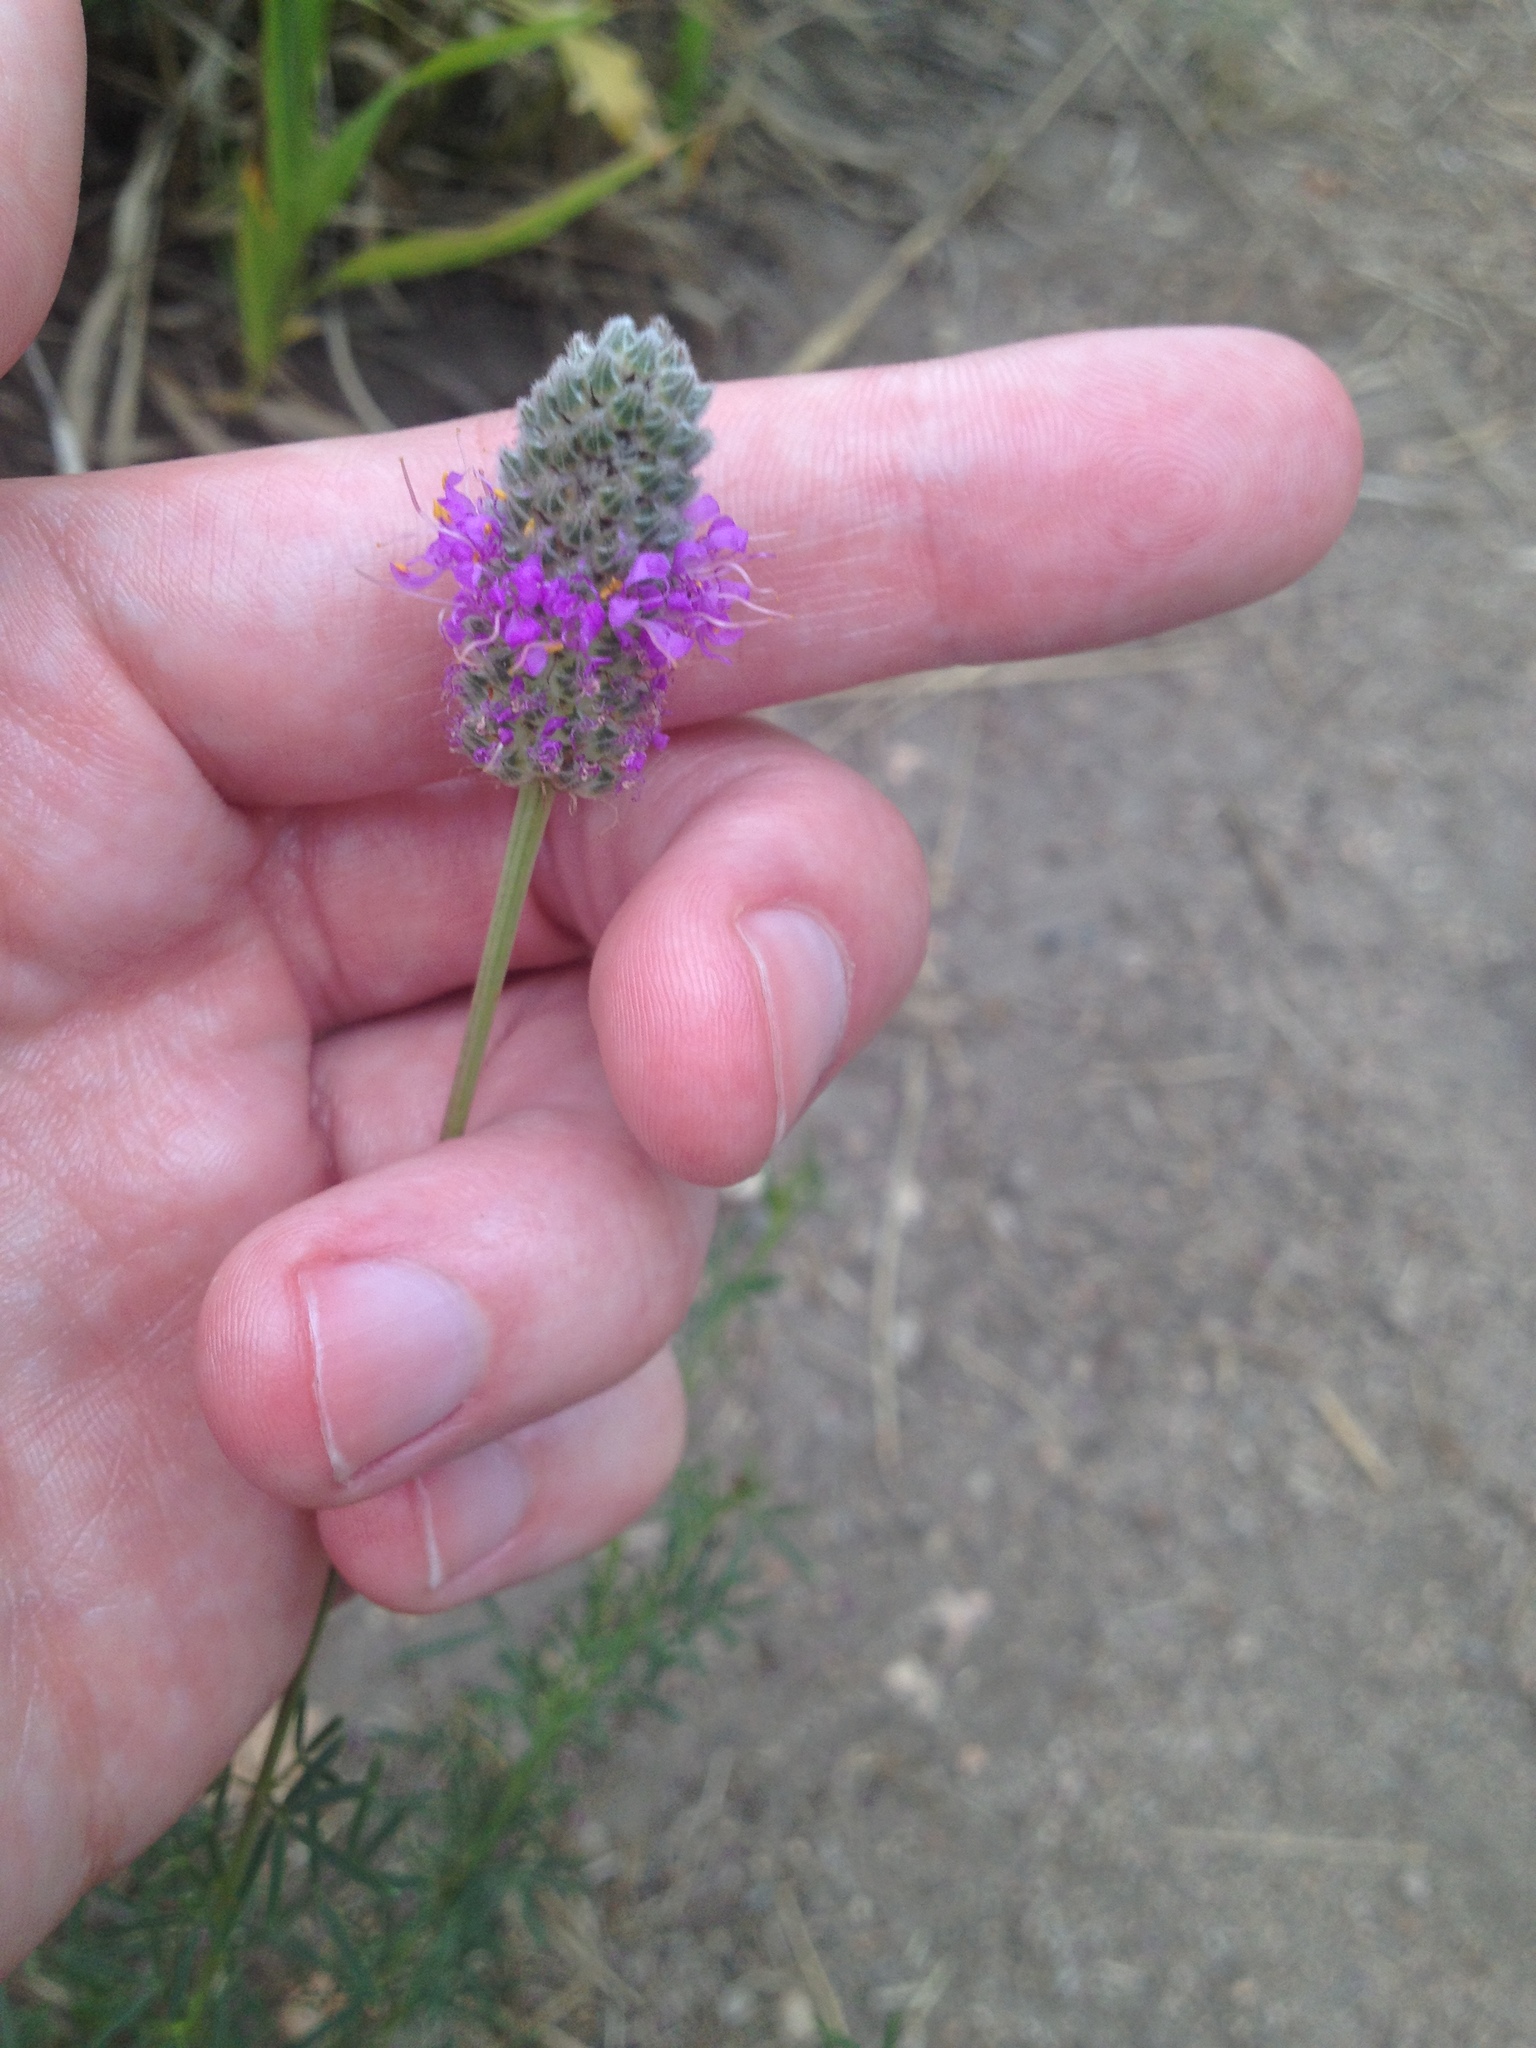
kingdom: Plantae
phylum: Tracheophyta
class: Magnoliopsida
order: Fabales
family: Fabaceae
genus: Dalea
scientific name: Dalea purpurea
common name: Purple prairie-clover
